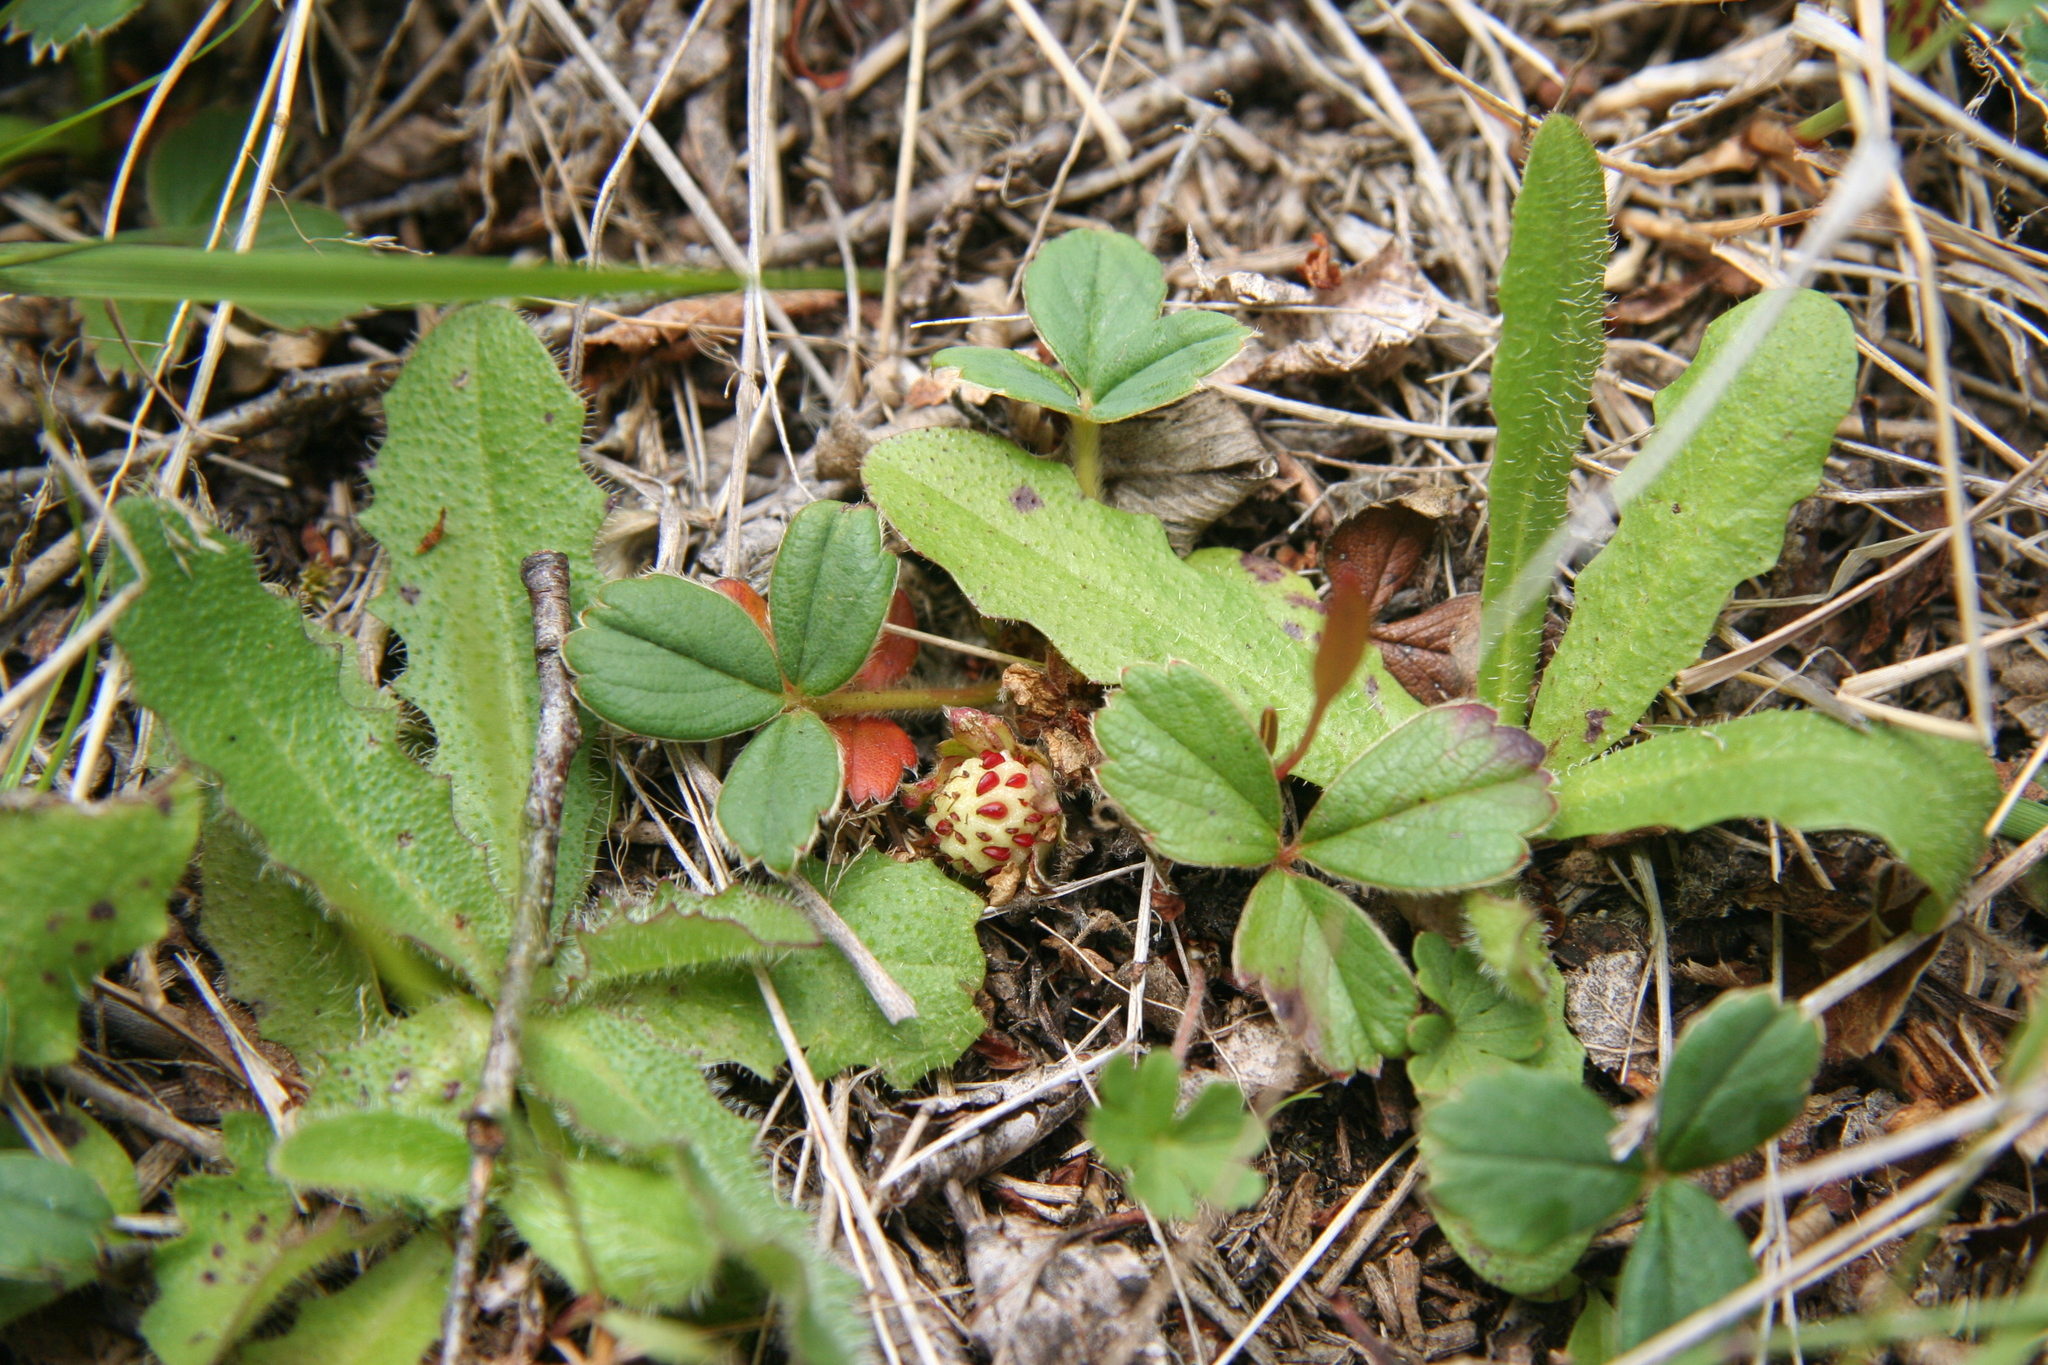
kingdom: Plantae
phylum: Tracheophyta
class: Magnoliopsida
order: Rosales
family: Rosaceae
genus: Fragaria
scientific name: Fragaria chiloensis
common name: Beach strawberry
